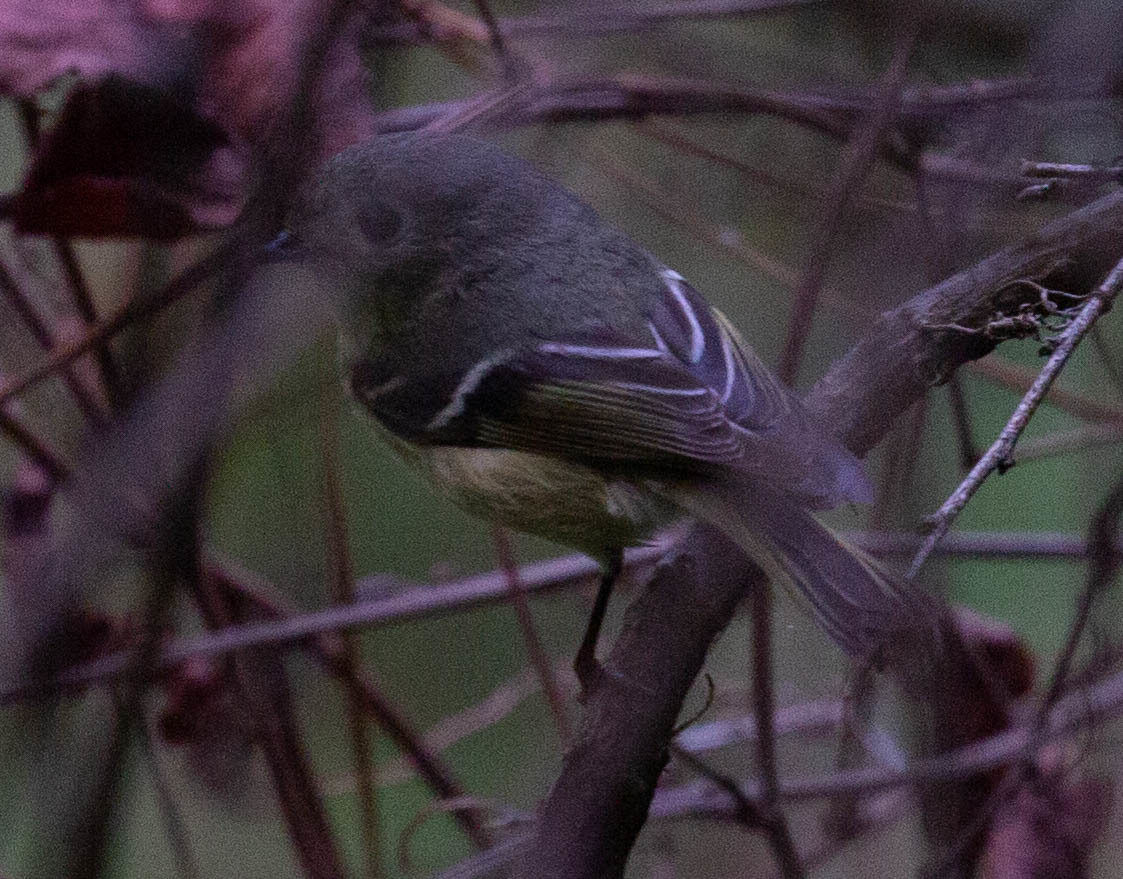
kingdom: Animalia
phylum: Chordata
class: Aves
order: Passeriformes
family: Regulidae
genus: Regulus
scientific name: Regulus calendula
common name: Ruby-crowned kinglet
